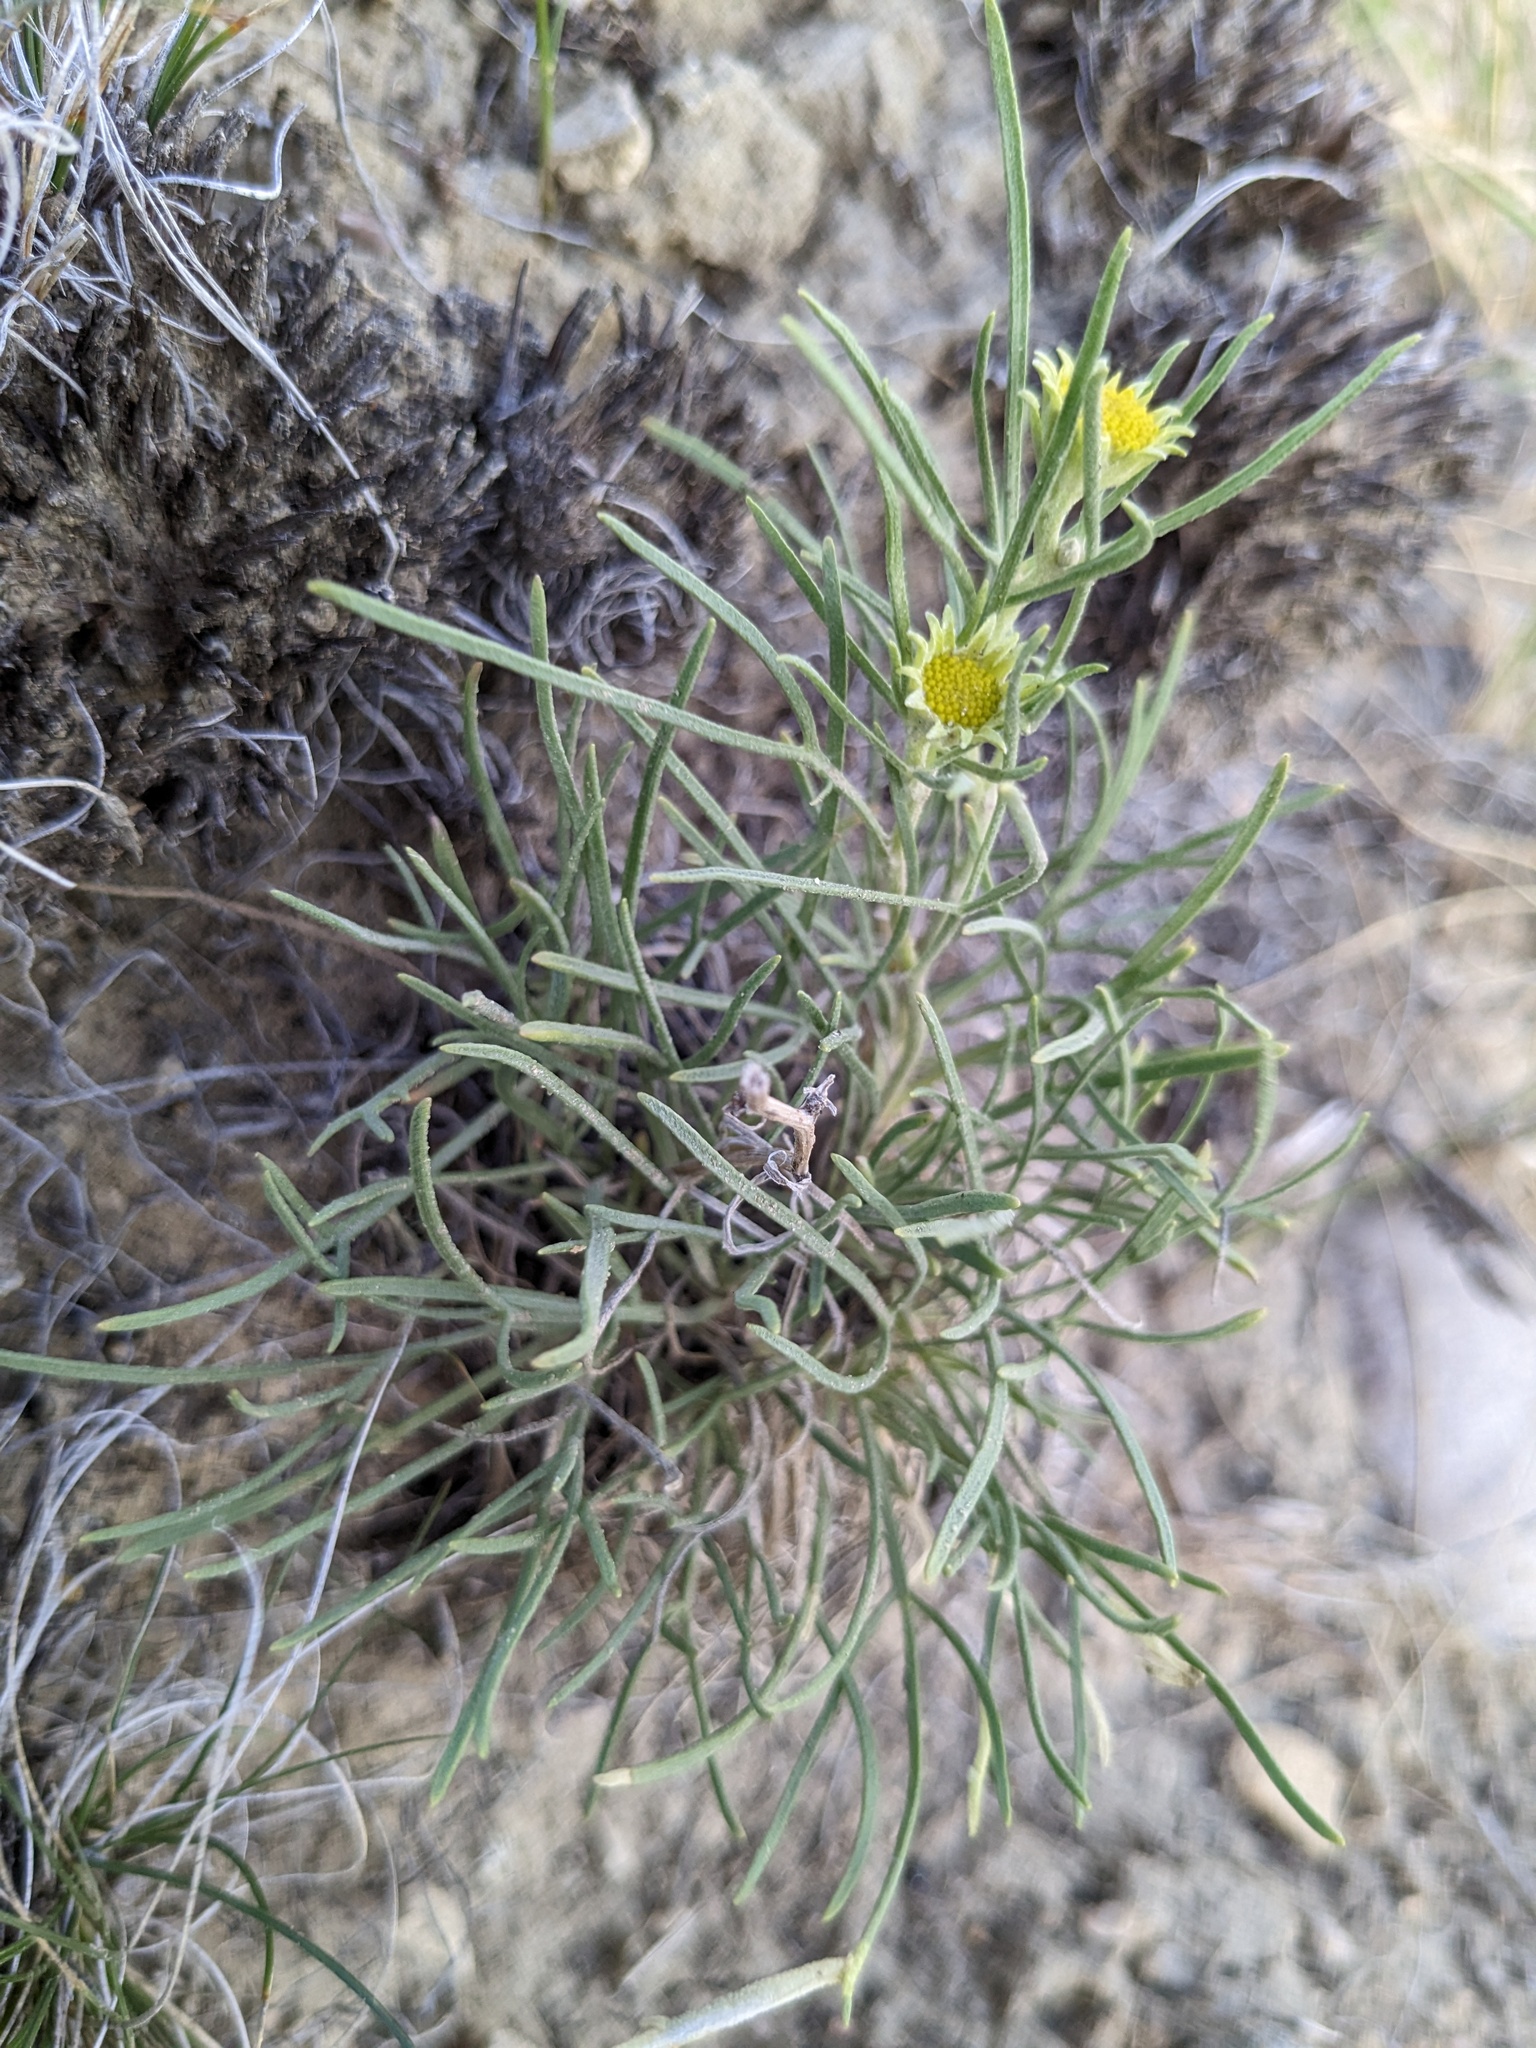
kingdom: Plantae
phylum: Tracheophyta
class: Magnoliopsida
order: Asterales
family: Asteraceae
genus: Hymenoxys
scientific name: Hymenoxys richardsonii
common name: Pingue rubberweed
